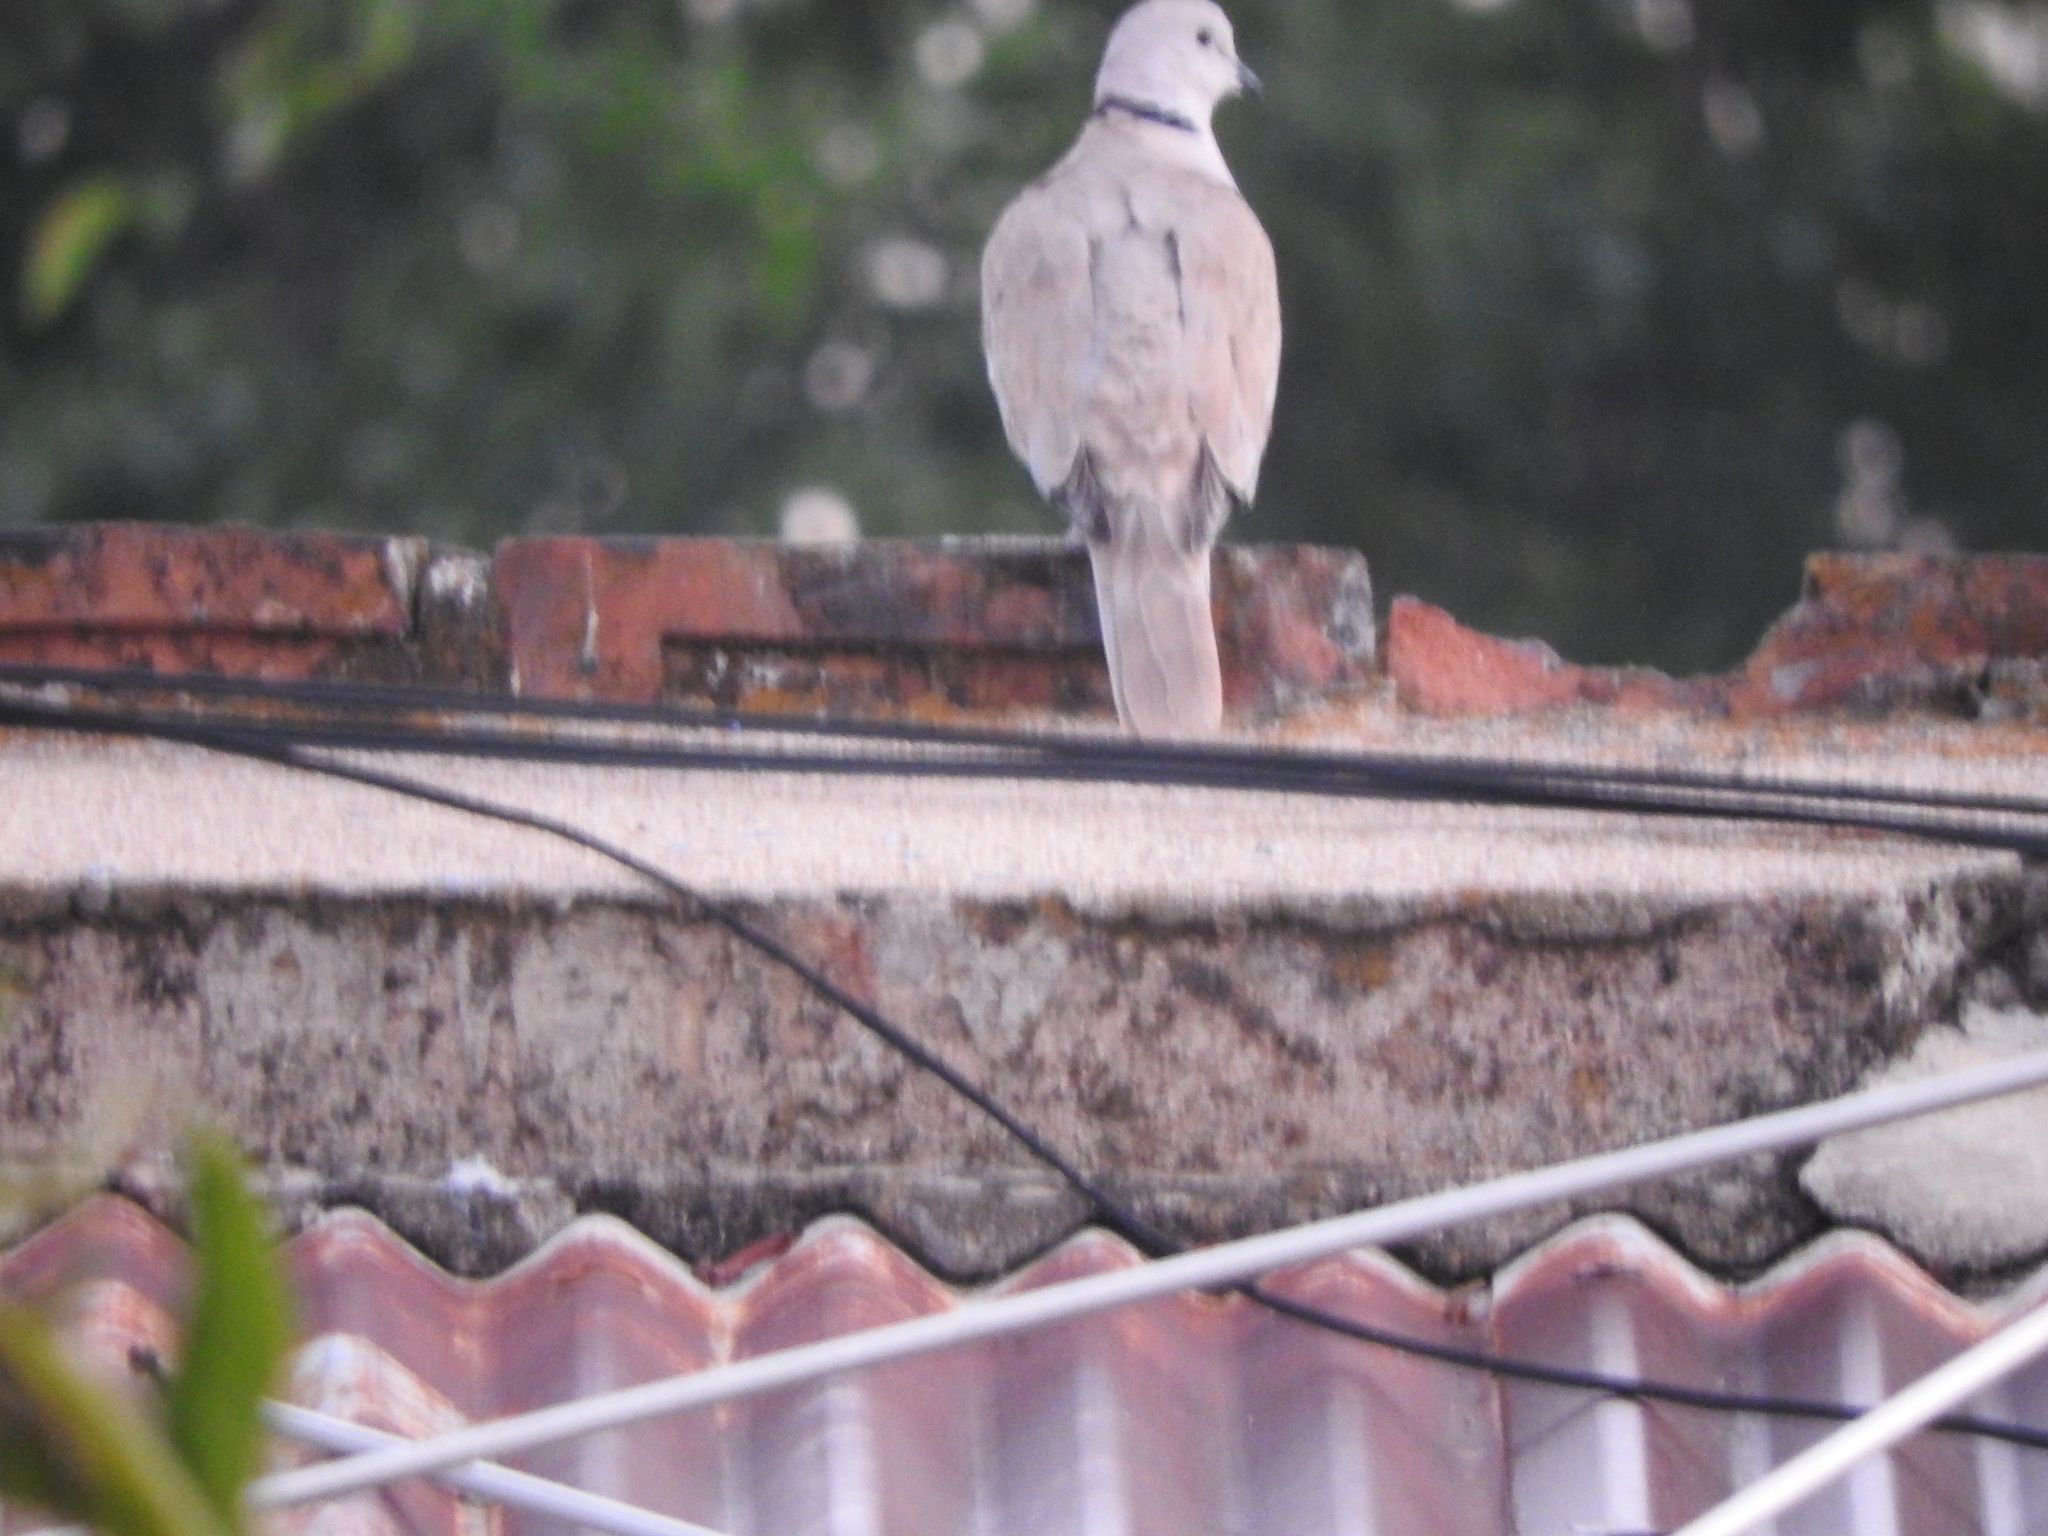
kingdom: Animalia
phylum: Chordata
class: Aves
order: Columbiformes
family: Columbidae
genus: Streptopelia
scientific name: Streptopelia decaocto
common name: Eurasian collared dove
